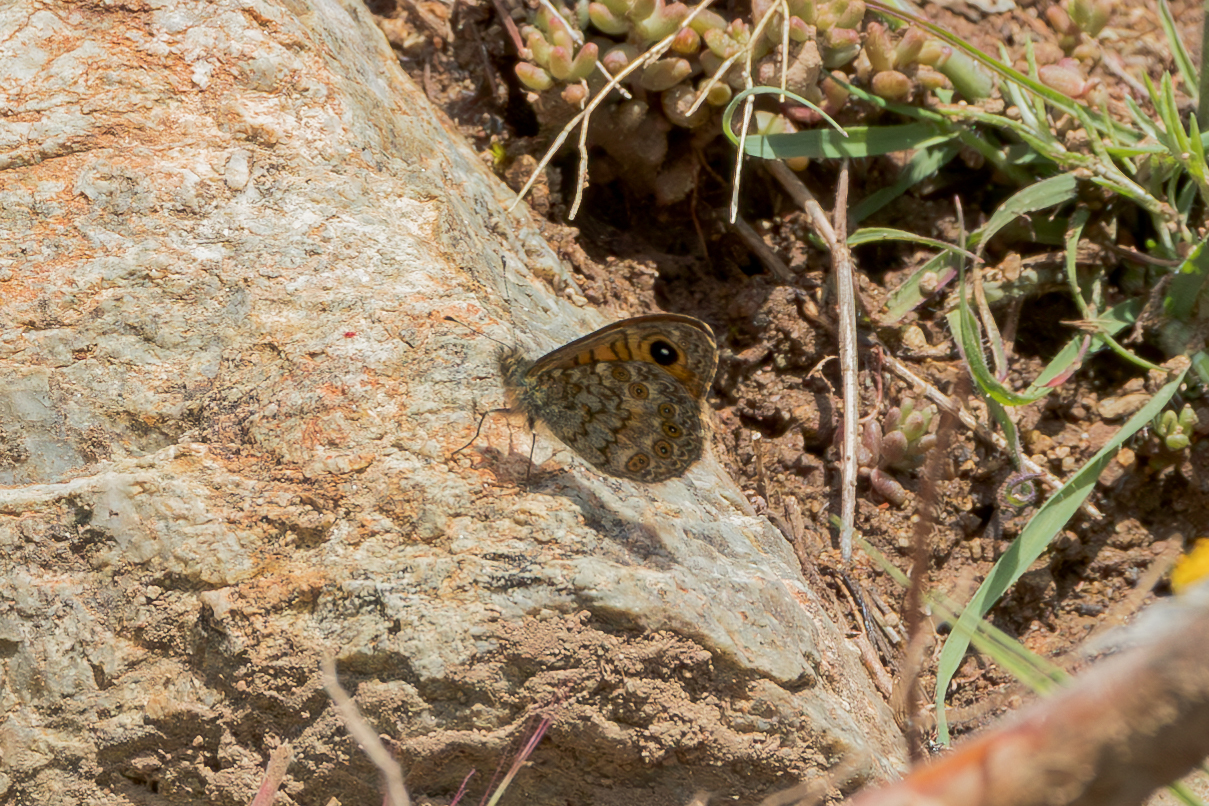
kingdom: Animalia
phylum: Arthropoda
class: Insecta
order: Lepidoptera
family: Nymphalidae
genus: Pararge
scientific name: Pararge Lasiommata paramegaera
